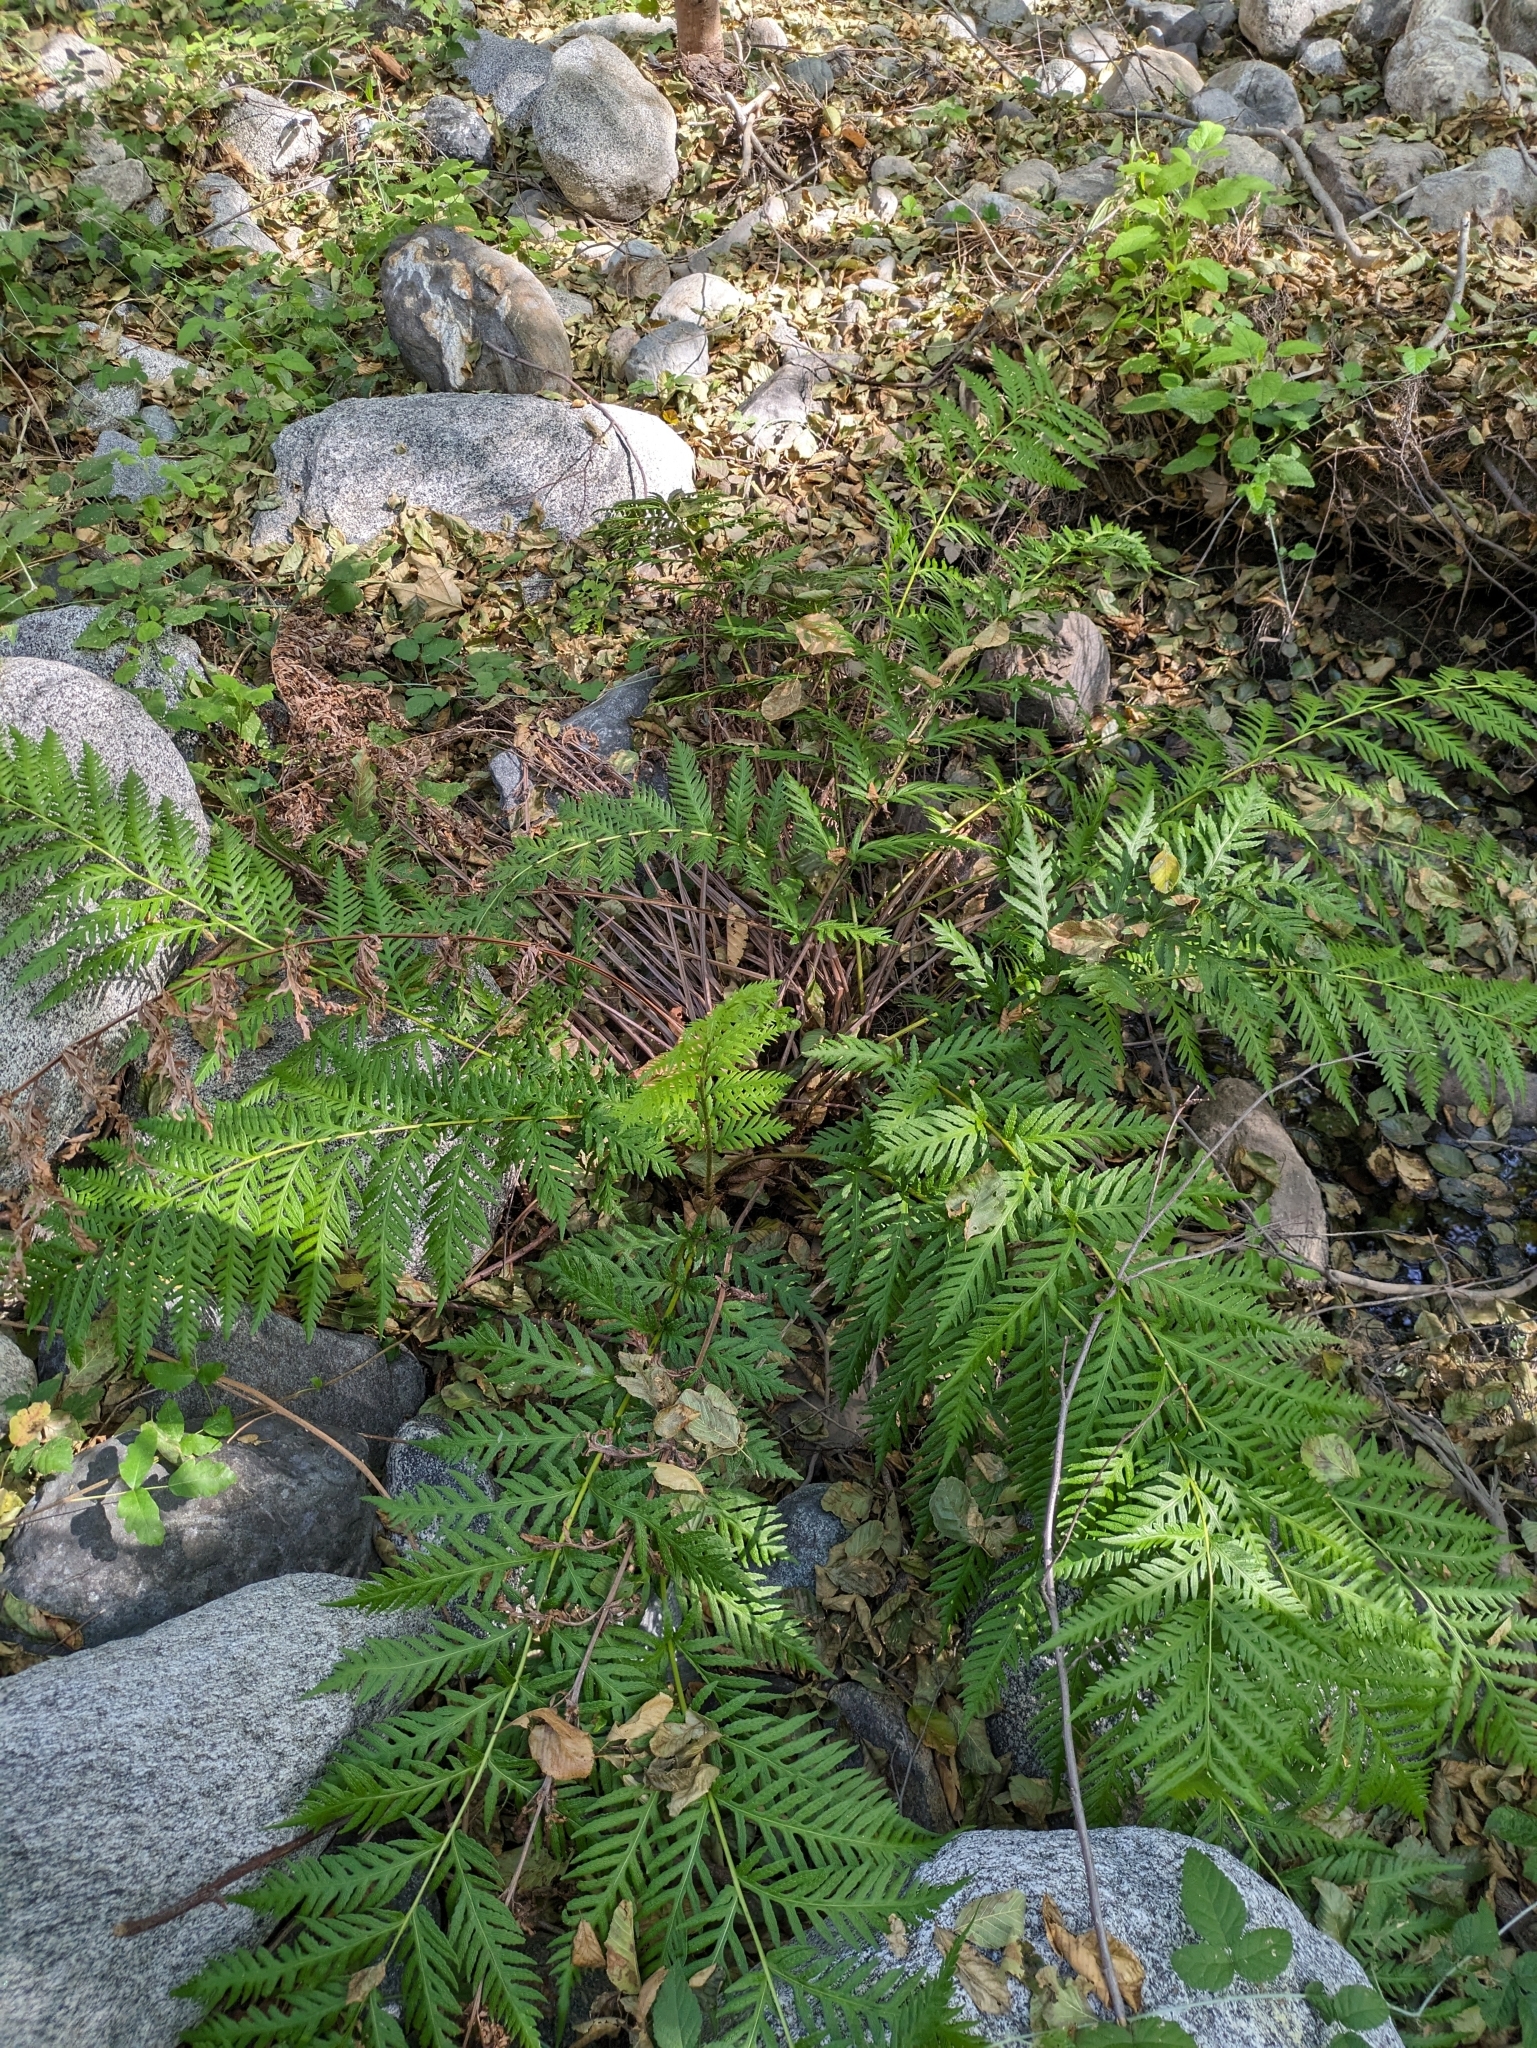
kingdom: Plantae
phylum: Tracheophyta
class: Polypodiopsida
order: Polypodiales
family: Blechnaceae
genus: Woodwardia
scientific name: Woodwardia fimbriata
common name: Giant chain fern
